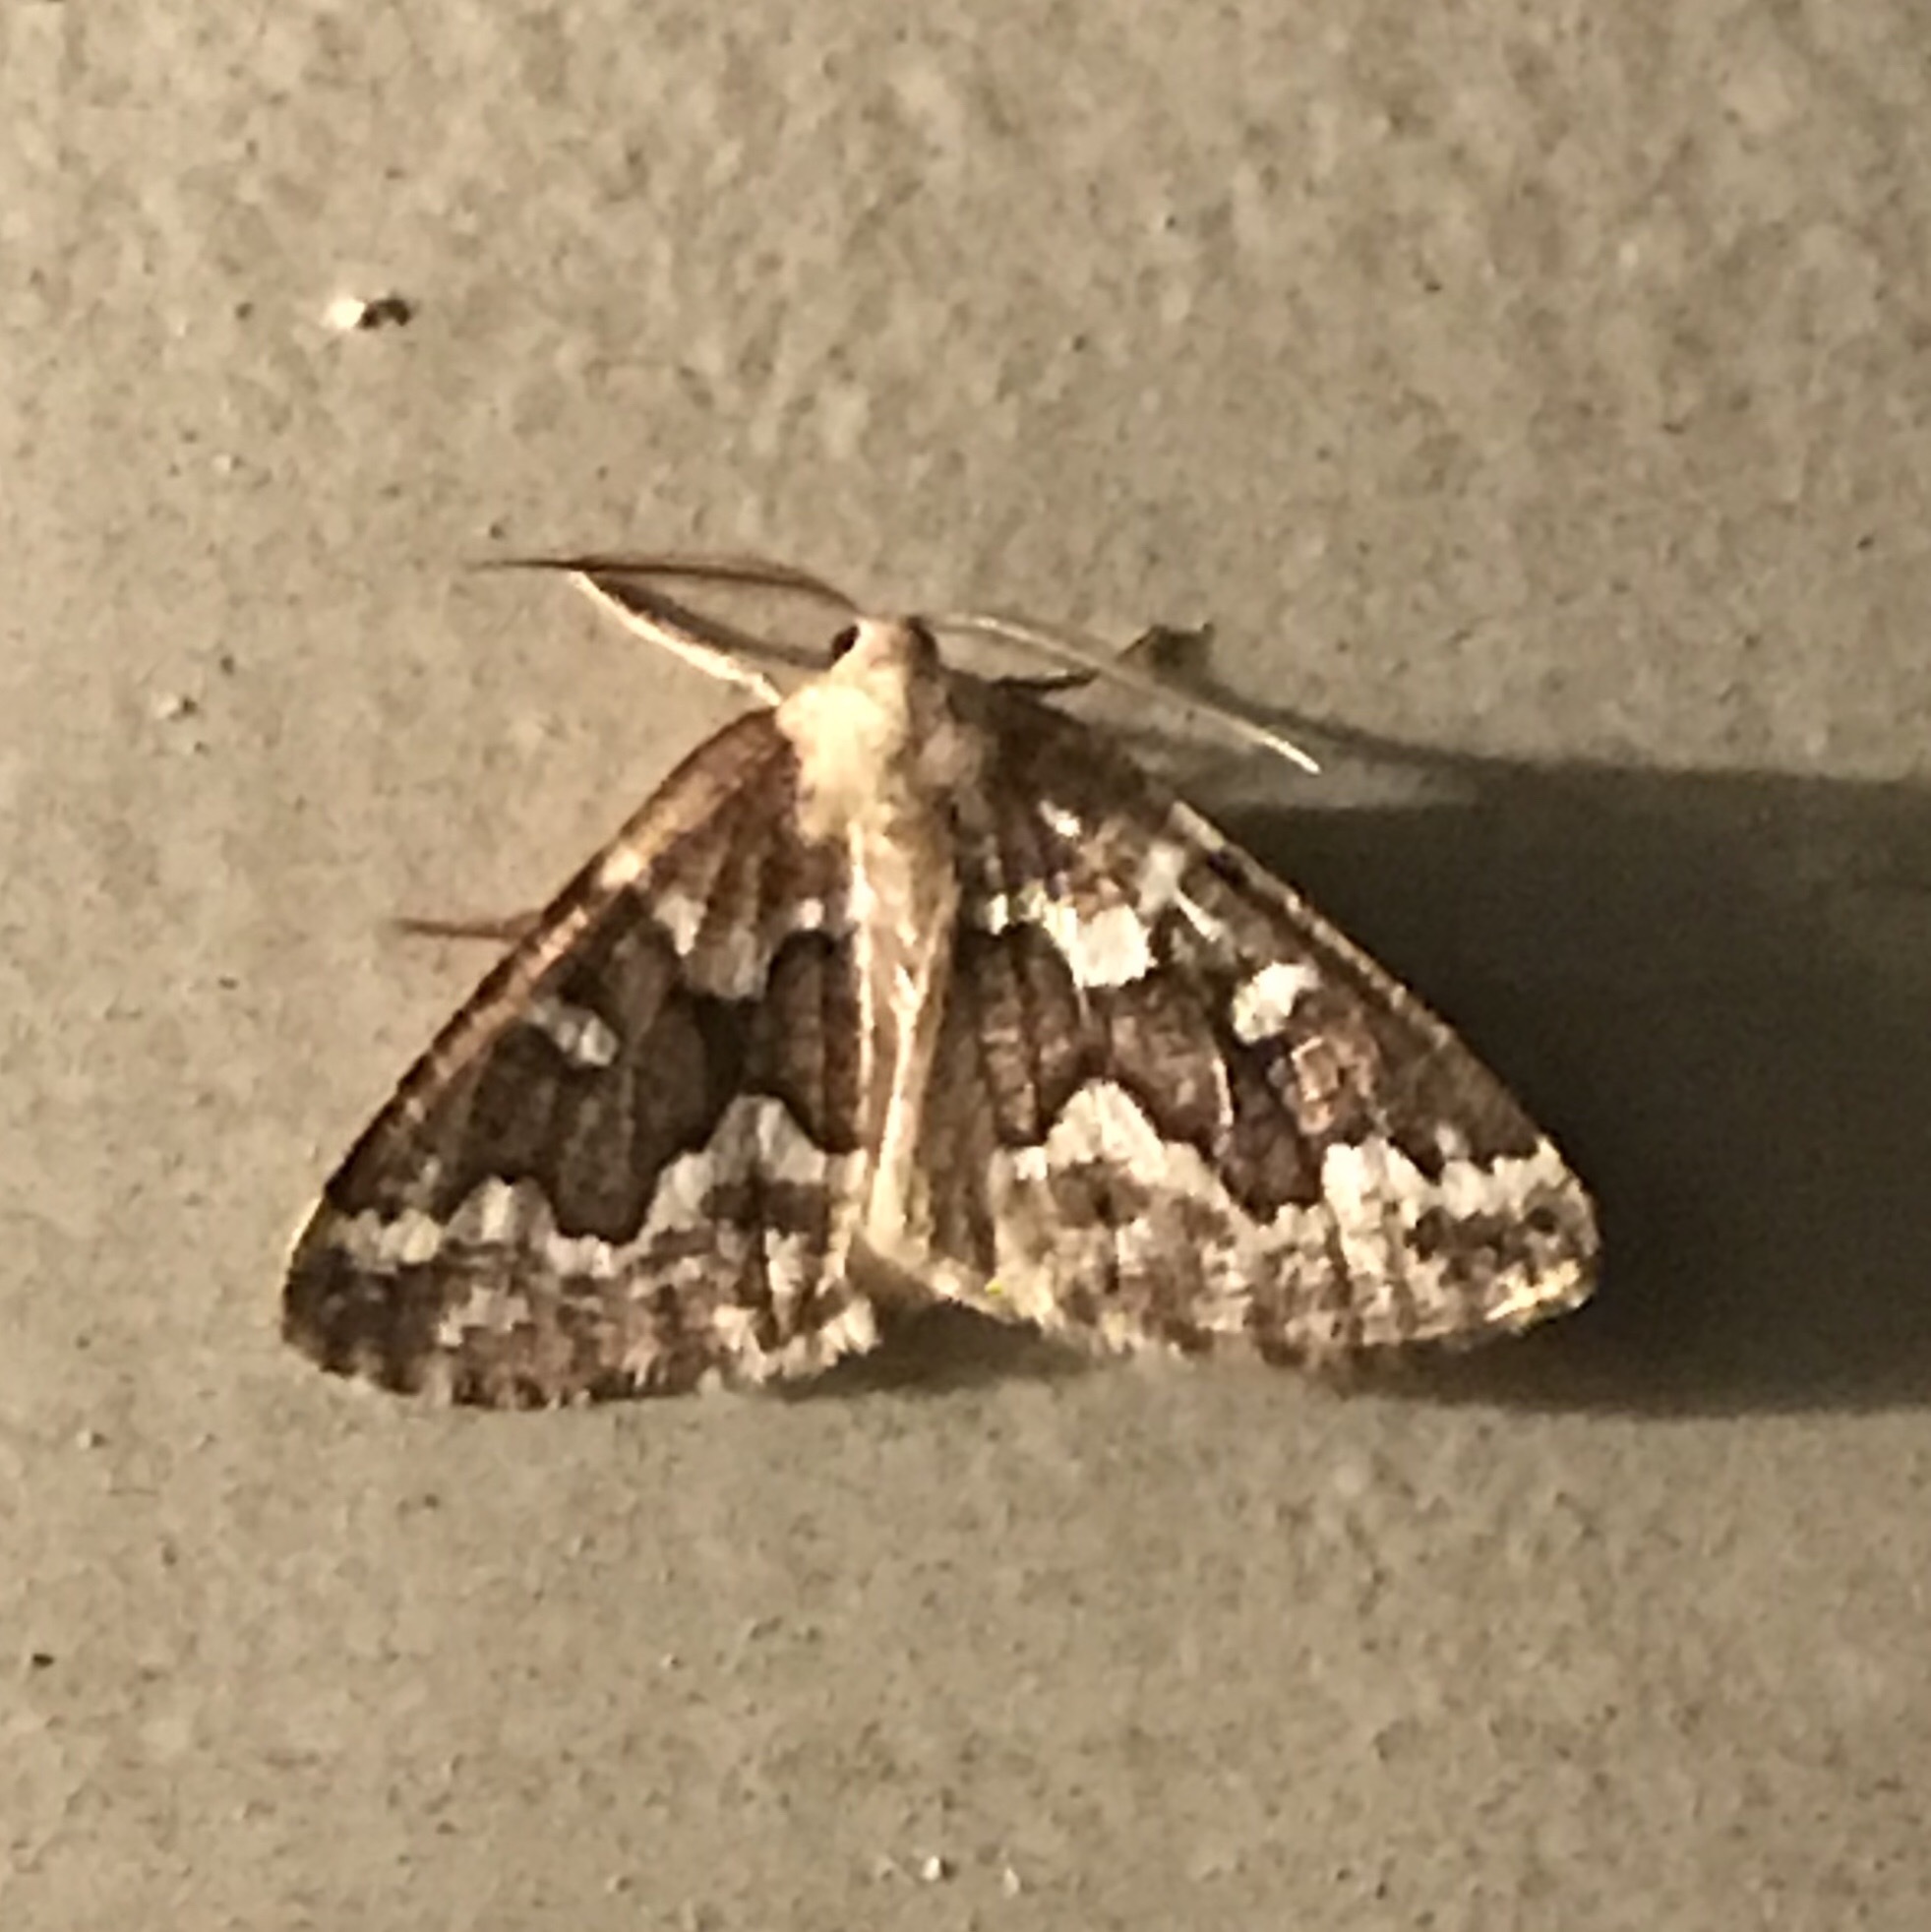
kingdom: Animalia
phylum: Arthropoda
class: Insecta
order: Lepidoptera
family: Geometridae
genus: Caripeta
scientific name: Caripeta divisata
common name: Gray spruce looper
